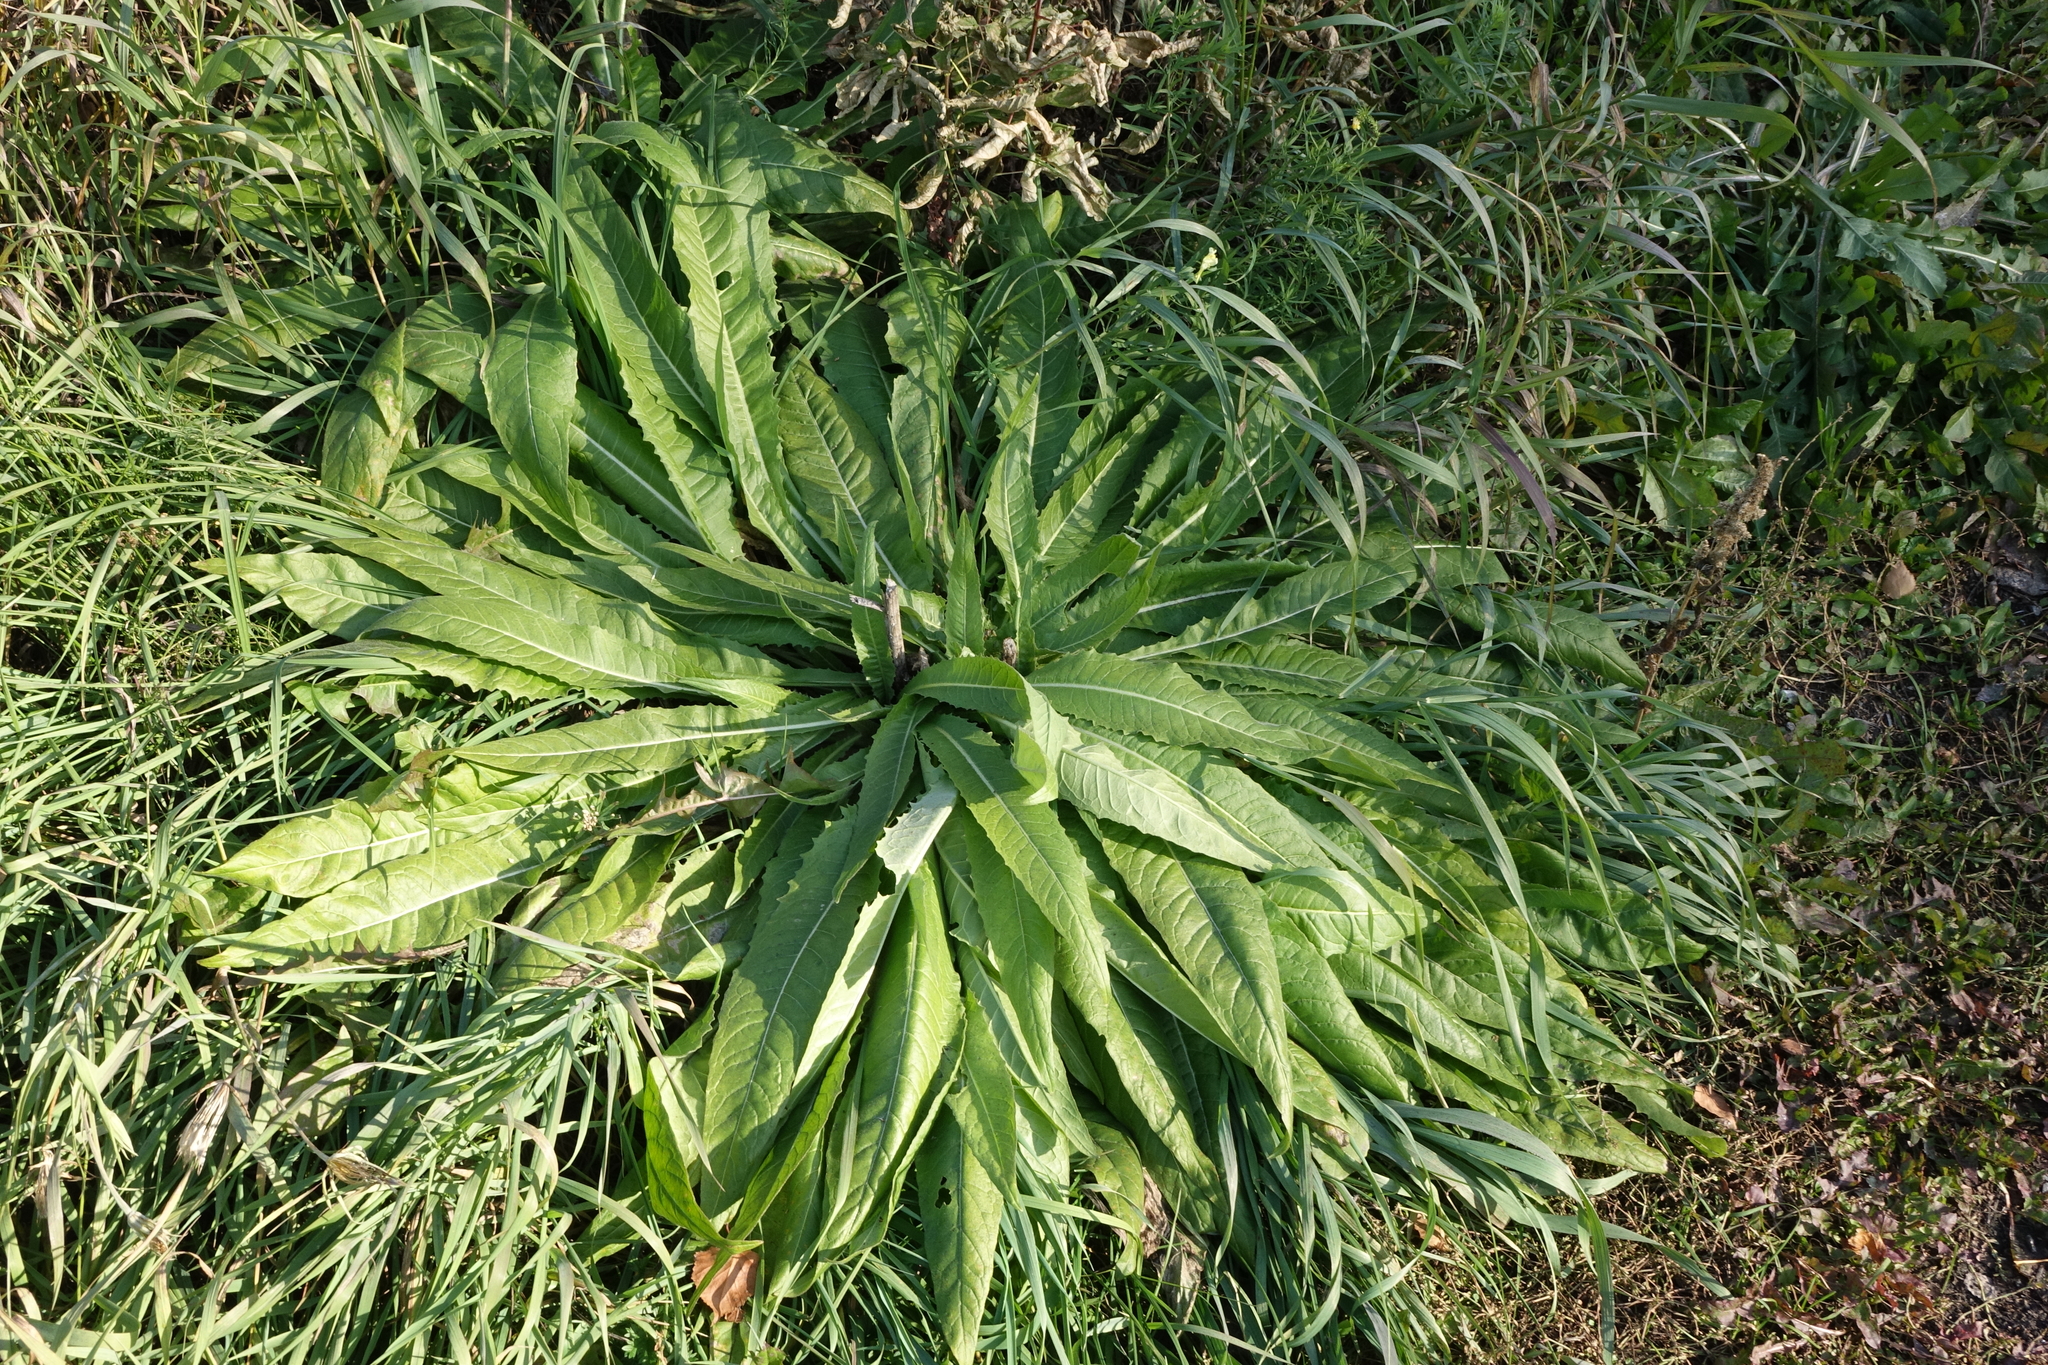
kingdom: Plantae
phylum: Tracheophyta
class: Magnoliopsida
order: Brassicales
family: Brassicaceae
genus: Bunias
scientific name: Bunias orientalis
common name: Warty-cabbage
